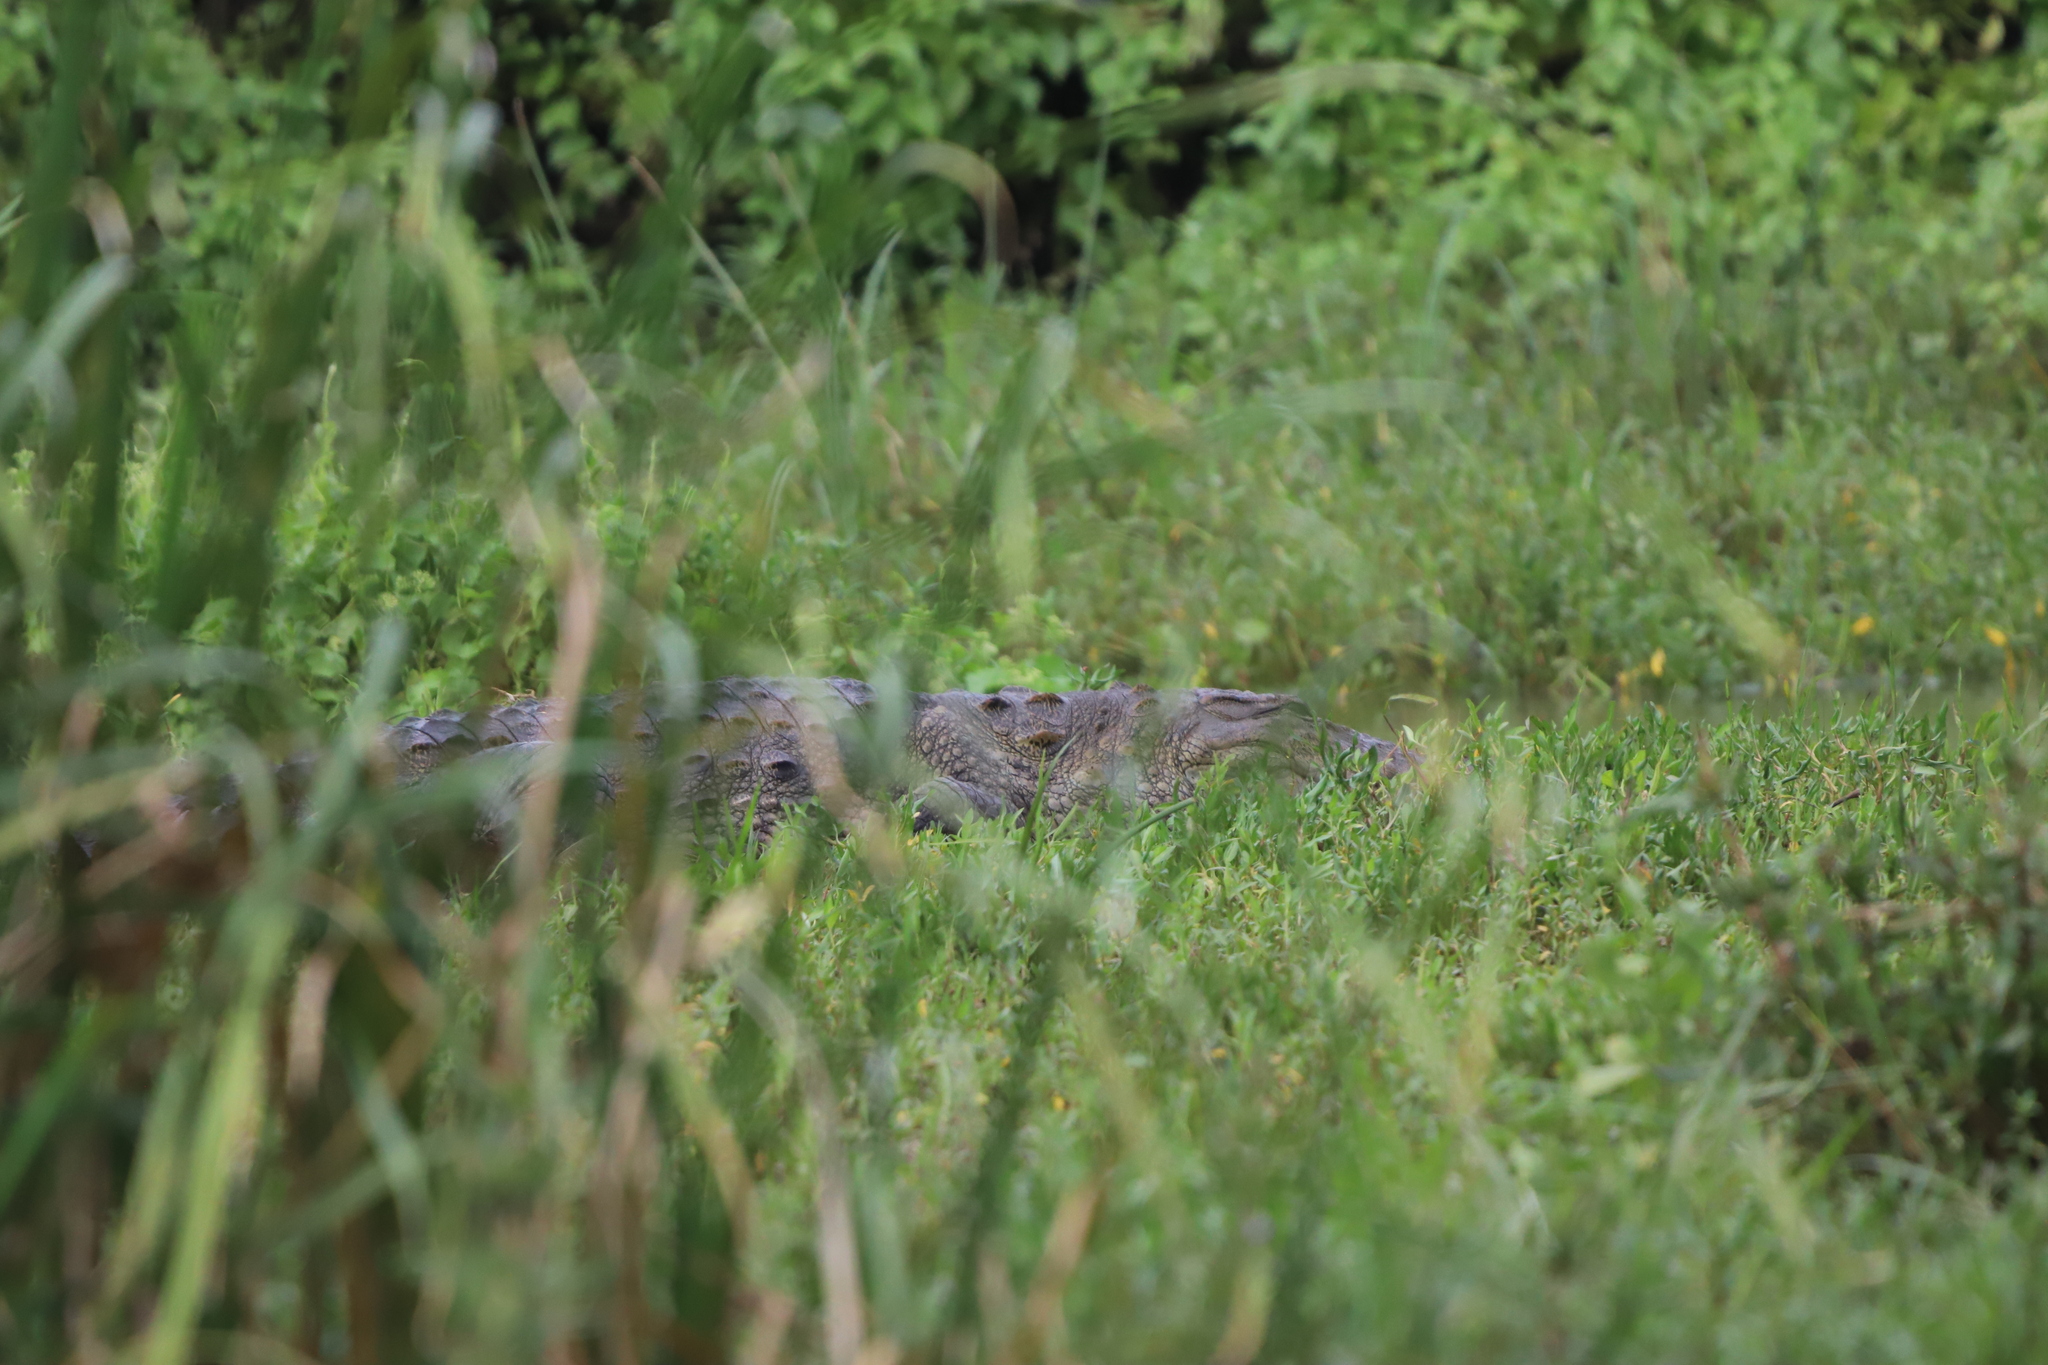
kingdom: Animalia
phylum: Chordata
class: Crocodylia
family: Crocodylidae
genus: Crocodylus
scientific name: Crocodylus palustris
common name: Mugger crocodile
